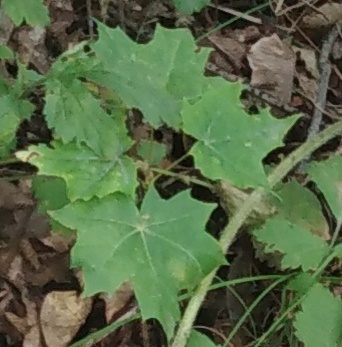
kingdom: Plantae
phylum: Tracheophyta
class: Magnoliopsida
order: Sapindales
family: Sapindaceae
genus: Acer
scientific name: Acer platanoides
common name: Norway maple
